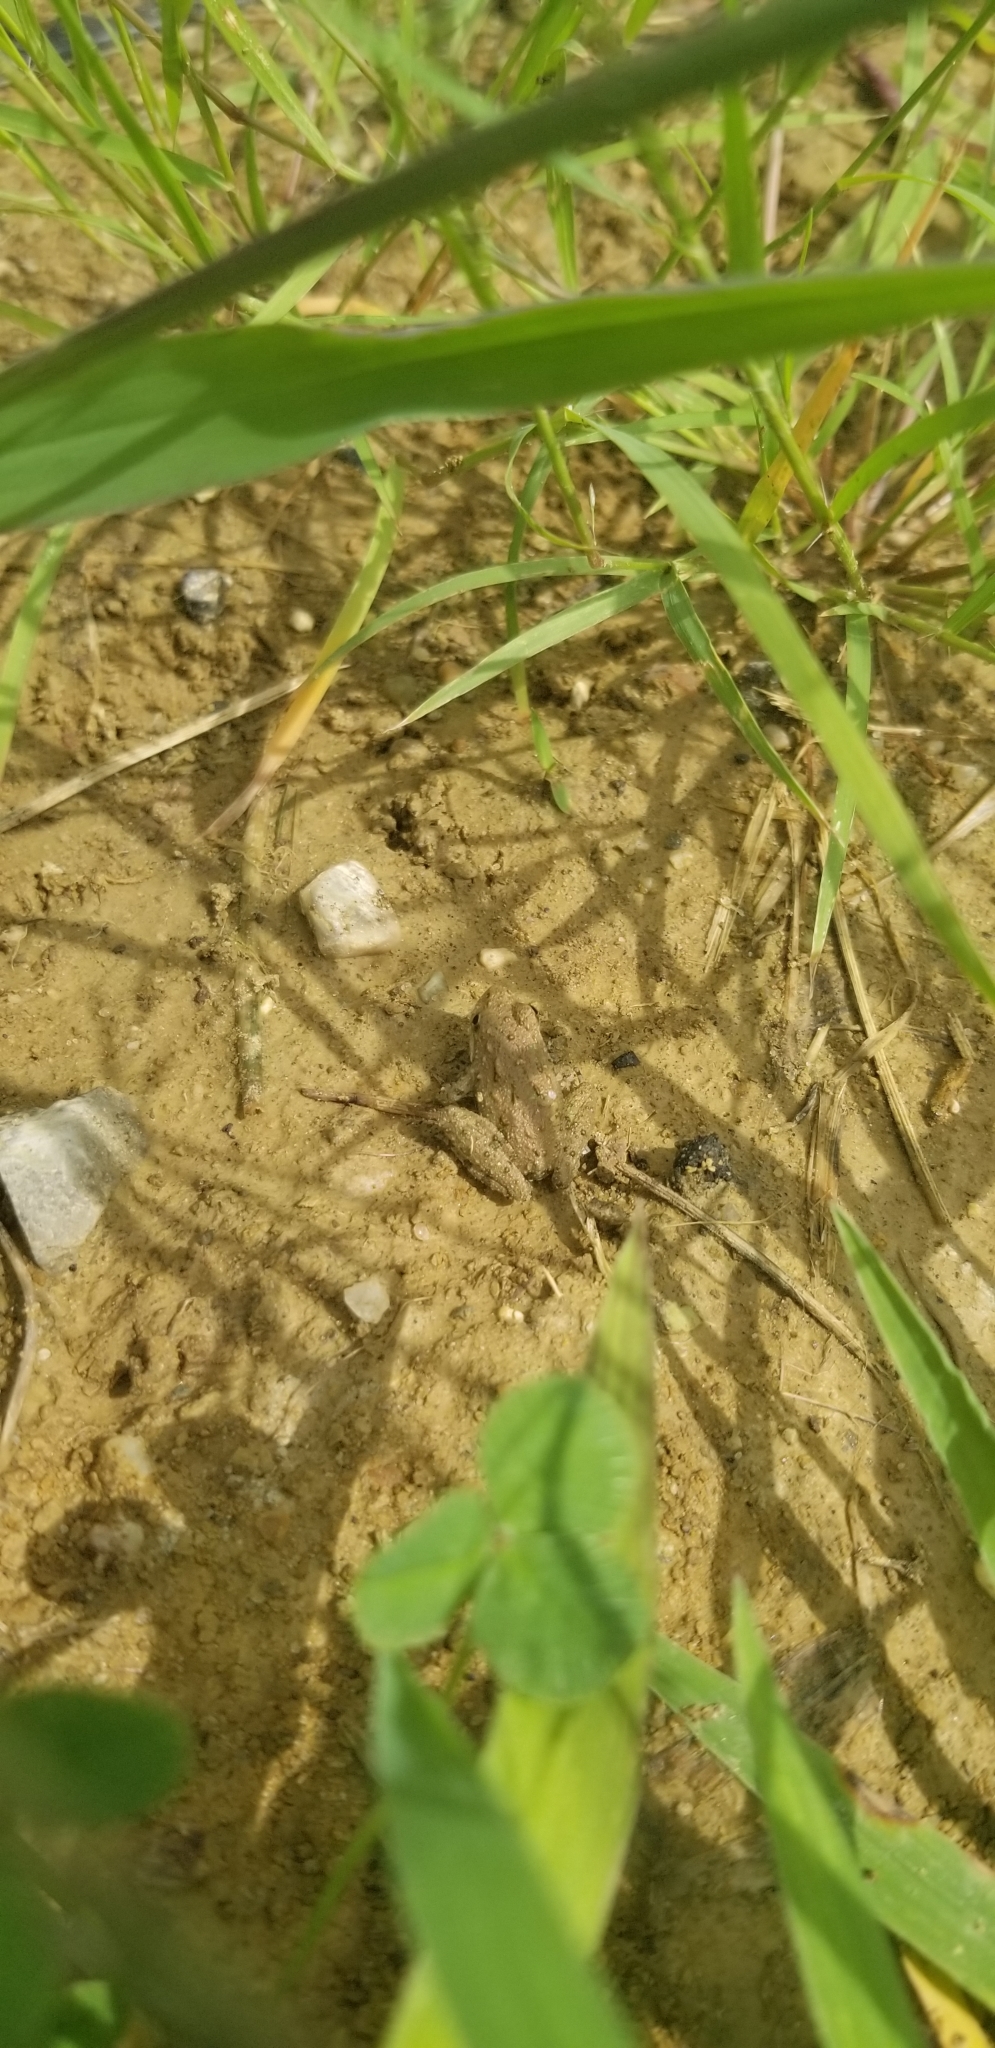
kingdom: Animalia
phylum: Chordata
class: Amphibia
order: Anura
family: Hylidae
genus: Acris
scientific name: Acris blanchardi
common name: Blanchard's cricket frog
